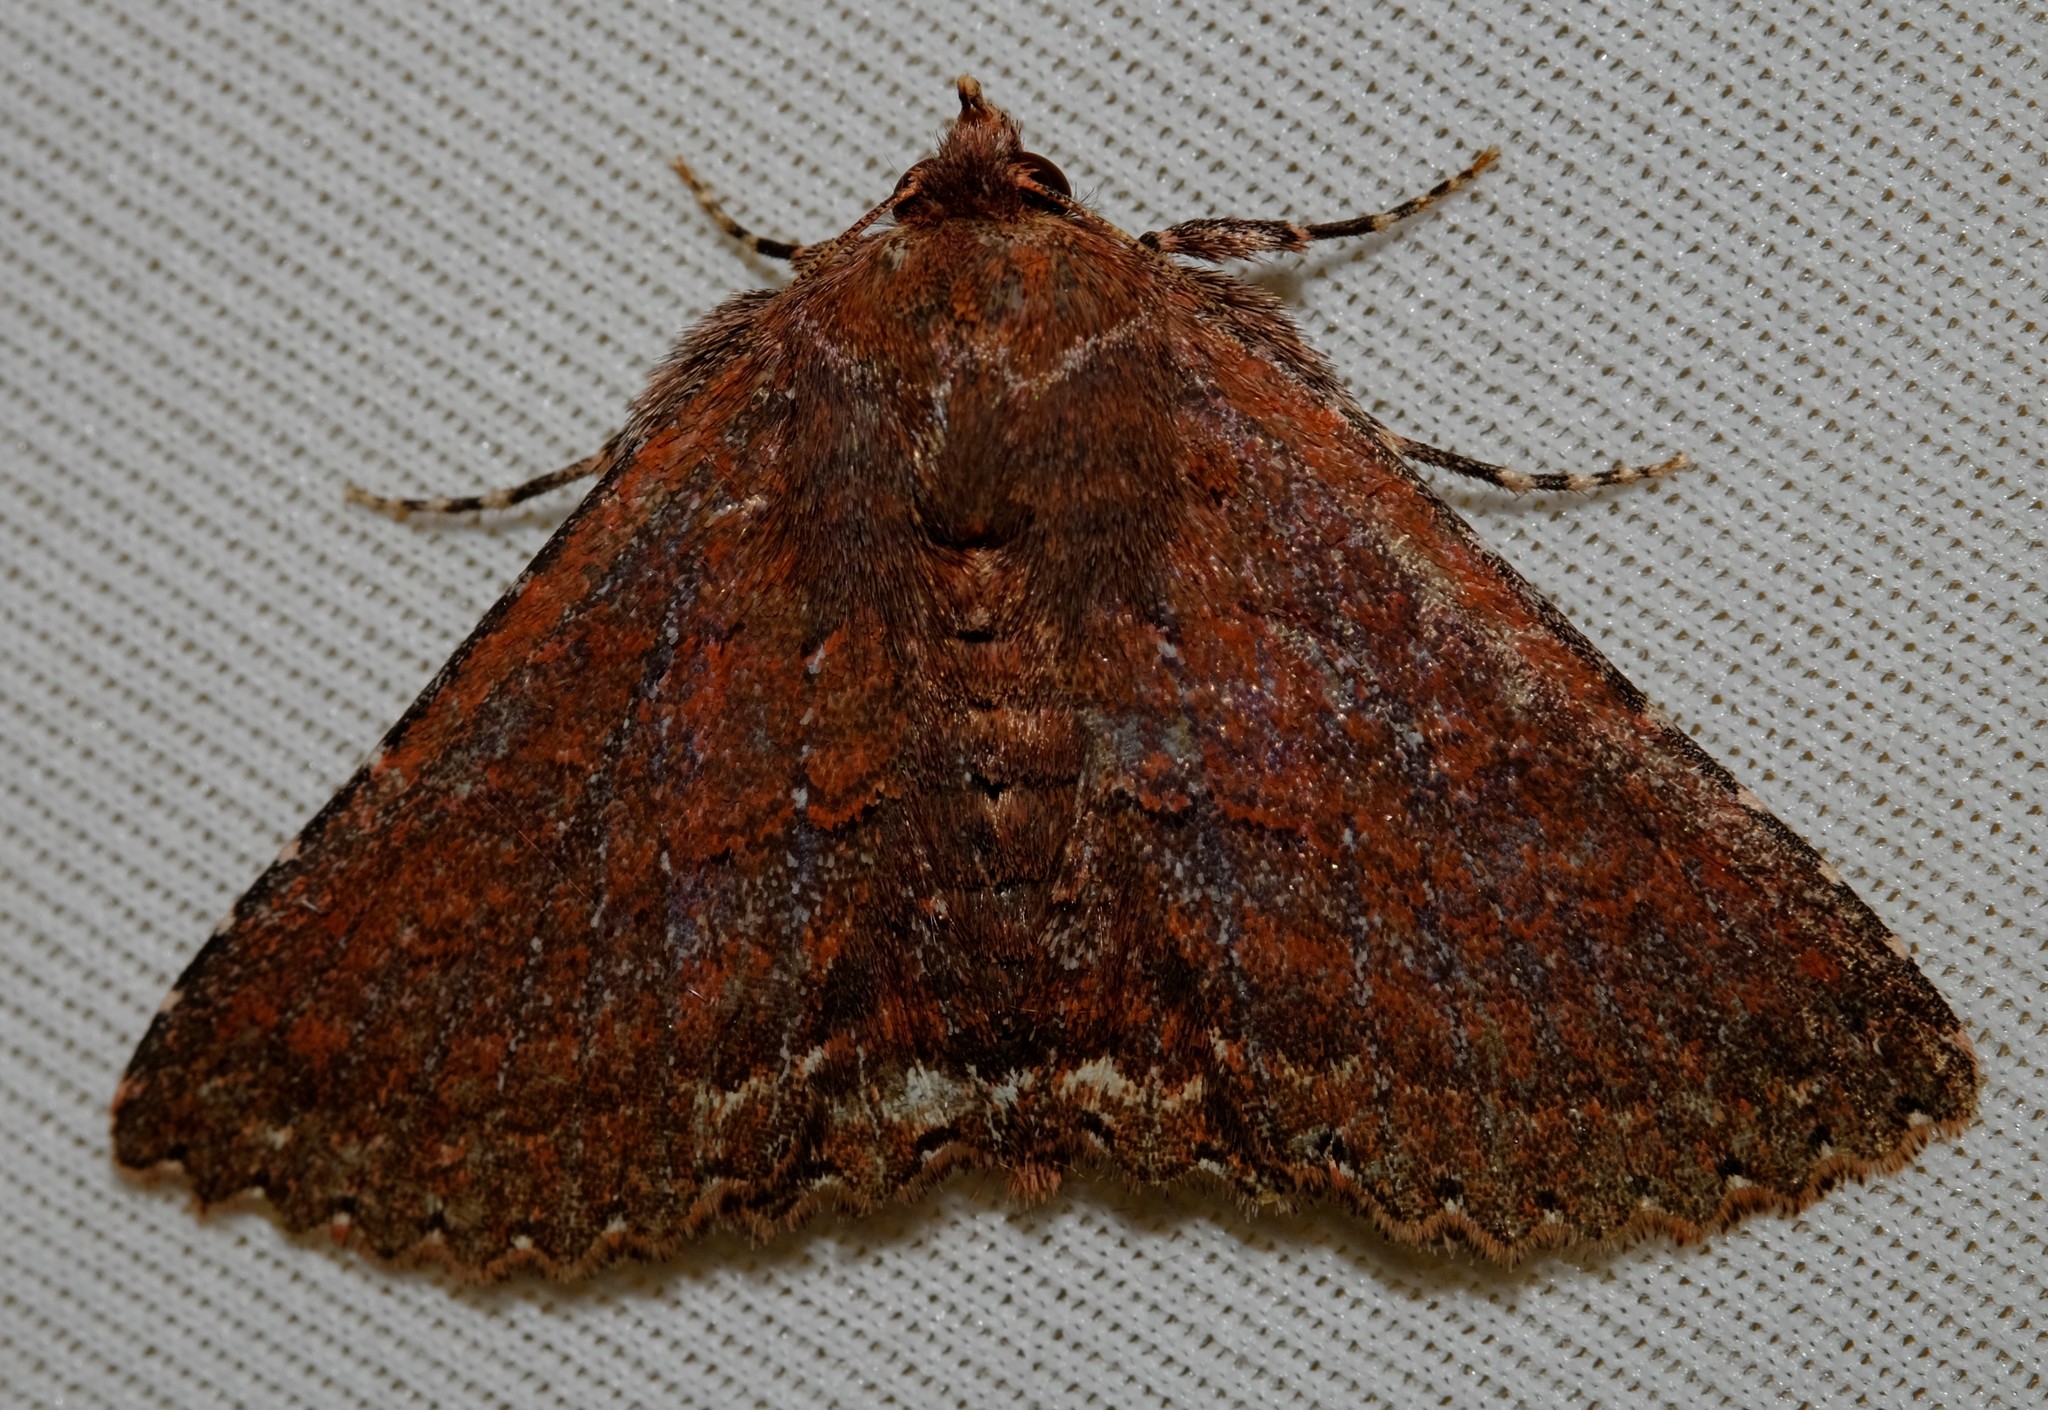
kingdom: Animalia
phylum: Arthropoda
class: Insecta
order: Lepidoptera
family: Erebidae
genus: Praxis
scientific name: Praxis porphyretica
